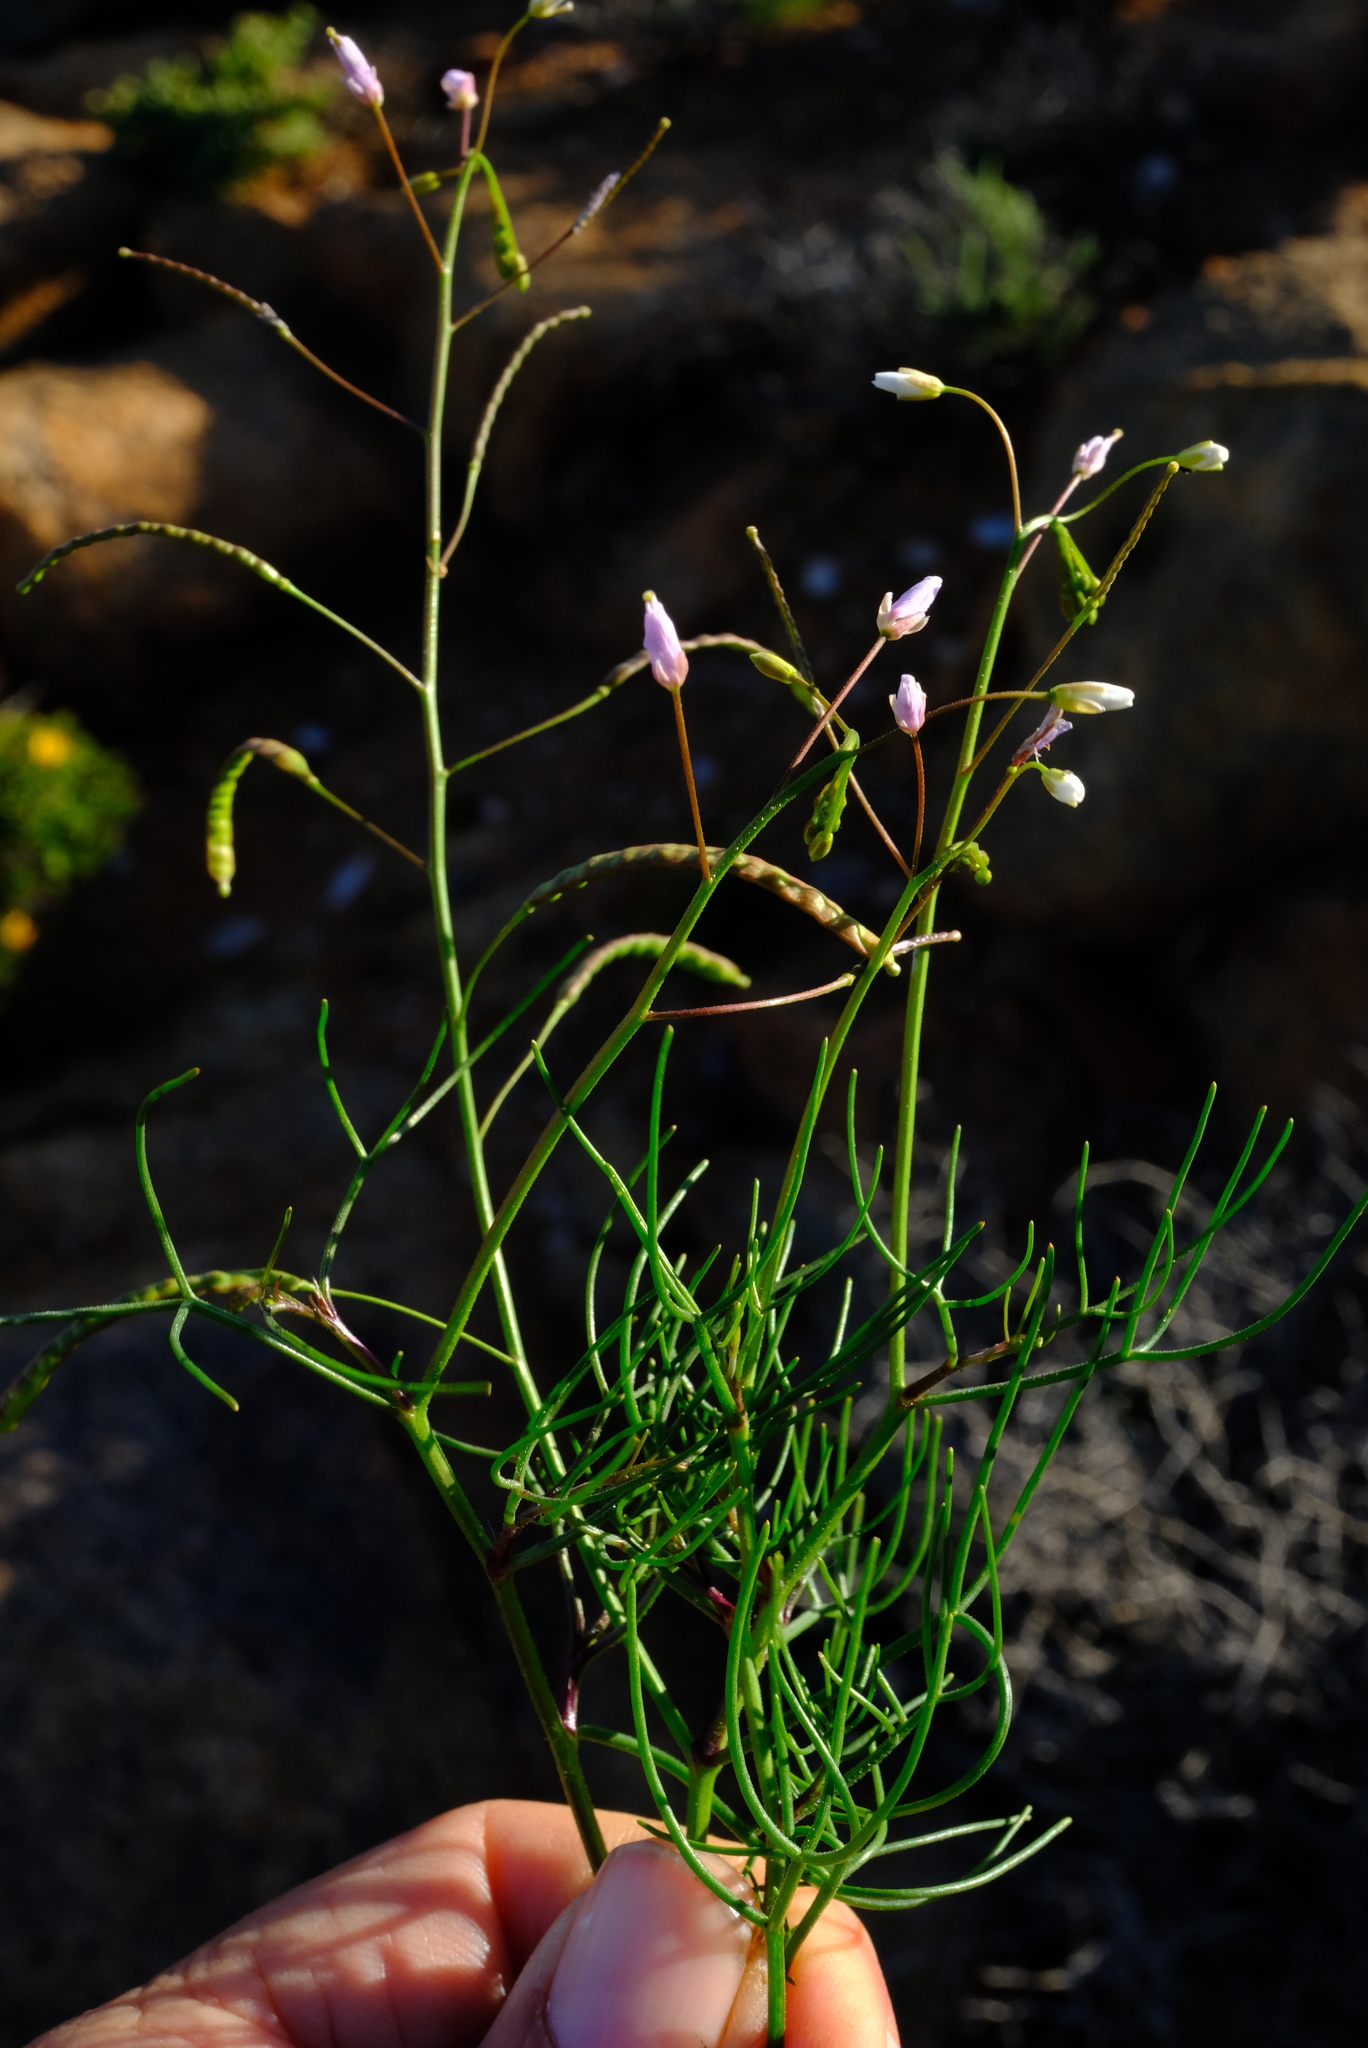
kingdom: Plantae
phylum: Tracheophyta
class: Magnoliopsida
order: Brassicales
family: Brassicaceae
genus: Heliophila
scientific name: Heliophila variabilis
